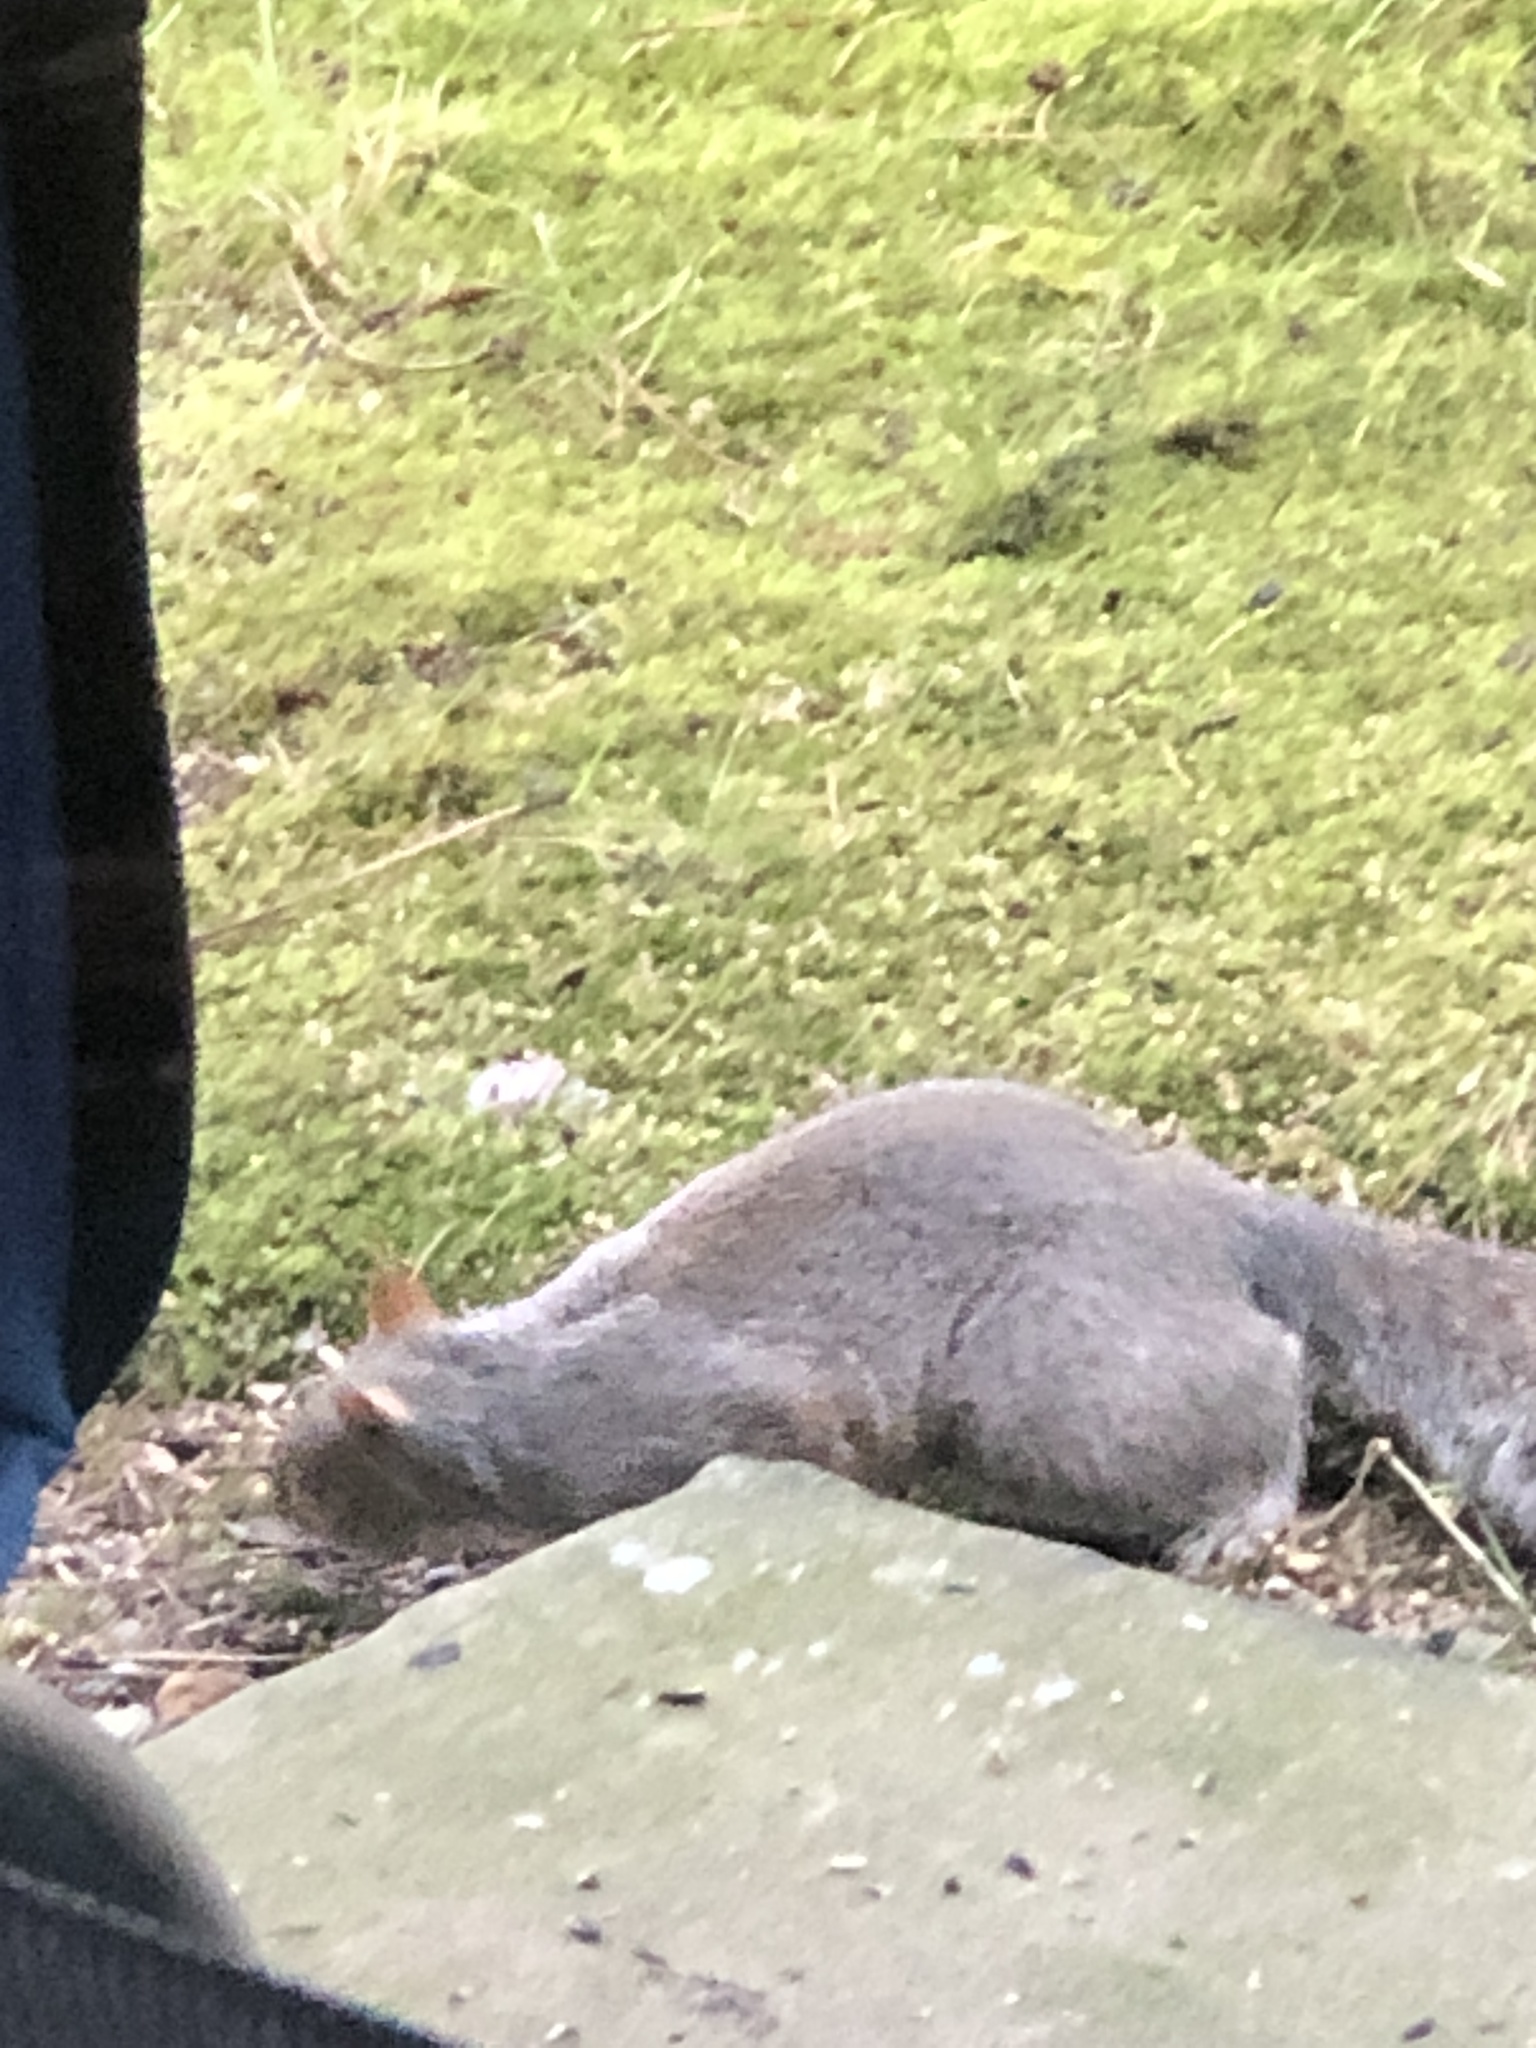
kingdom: Animalia
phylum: Chordata
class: Mammalia
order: Rodentia
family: Sciuridae
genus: Sciurus
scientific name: Sciurus carolinensis
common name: Eastern gray squirrel
